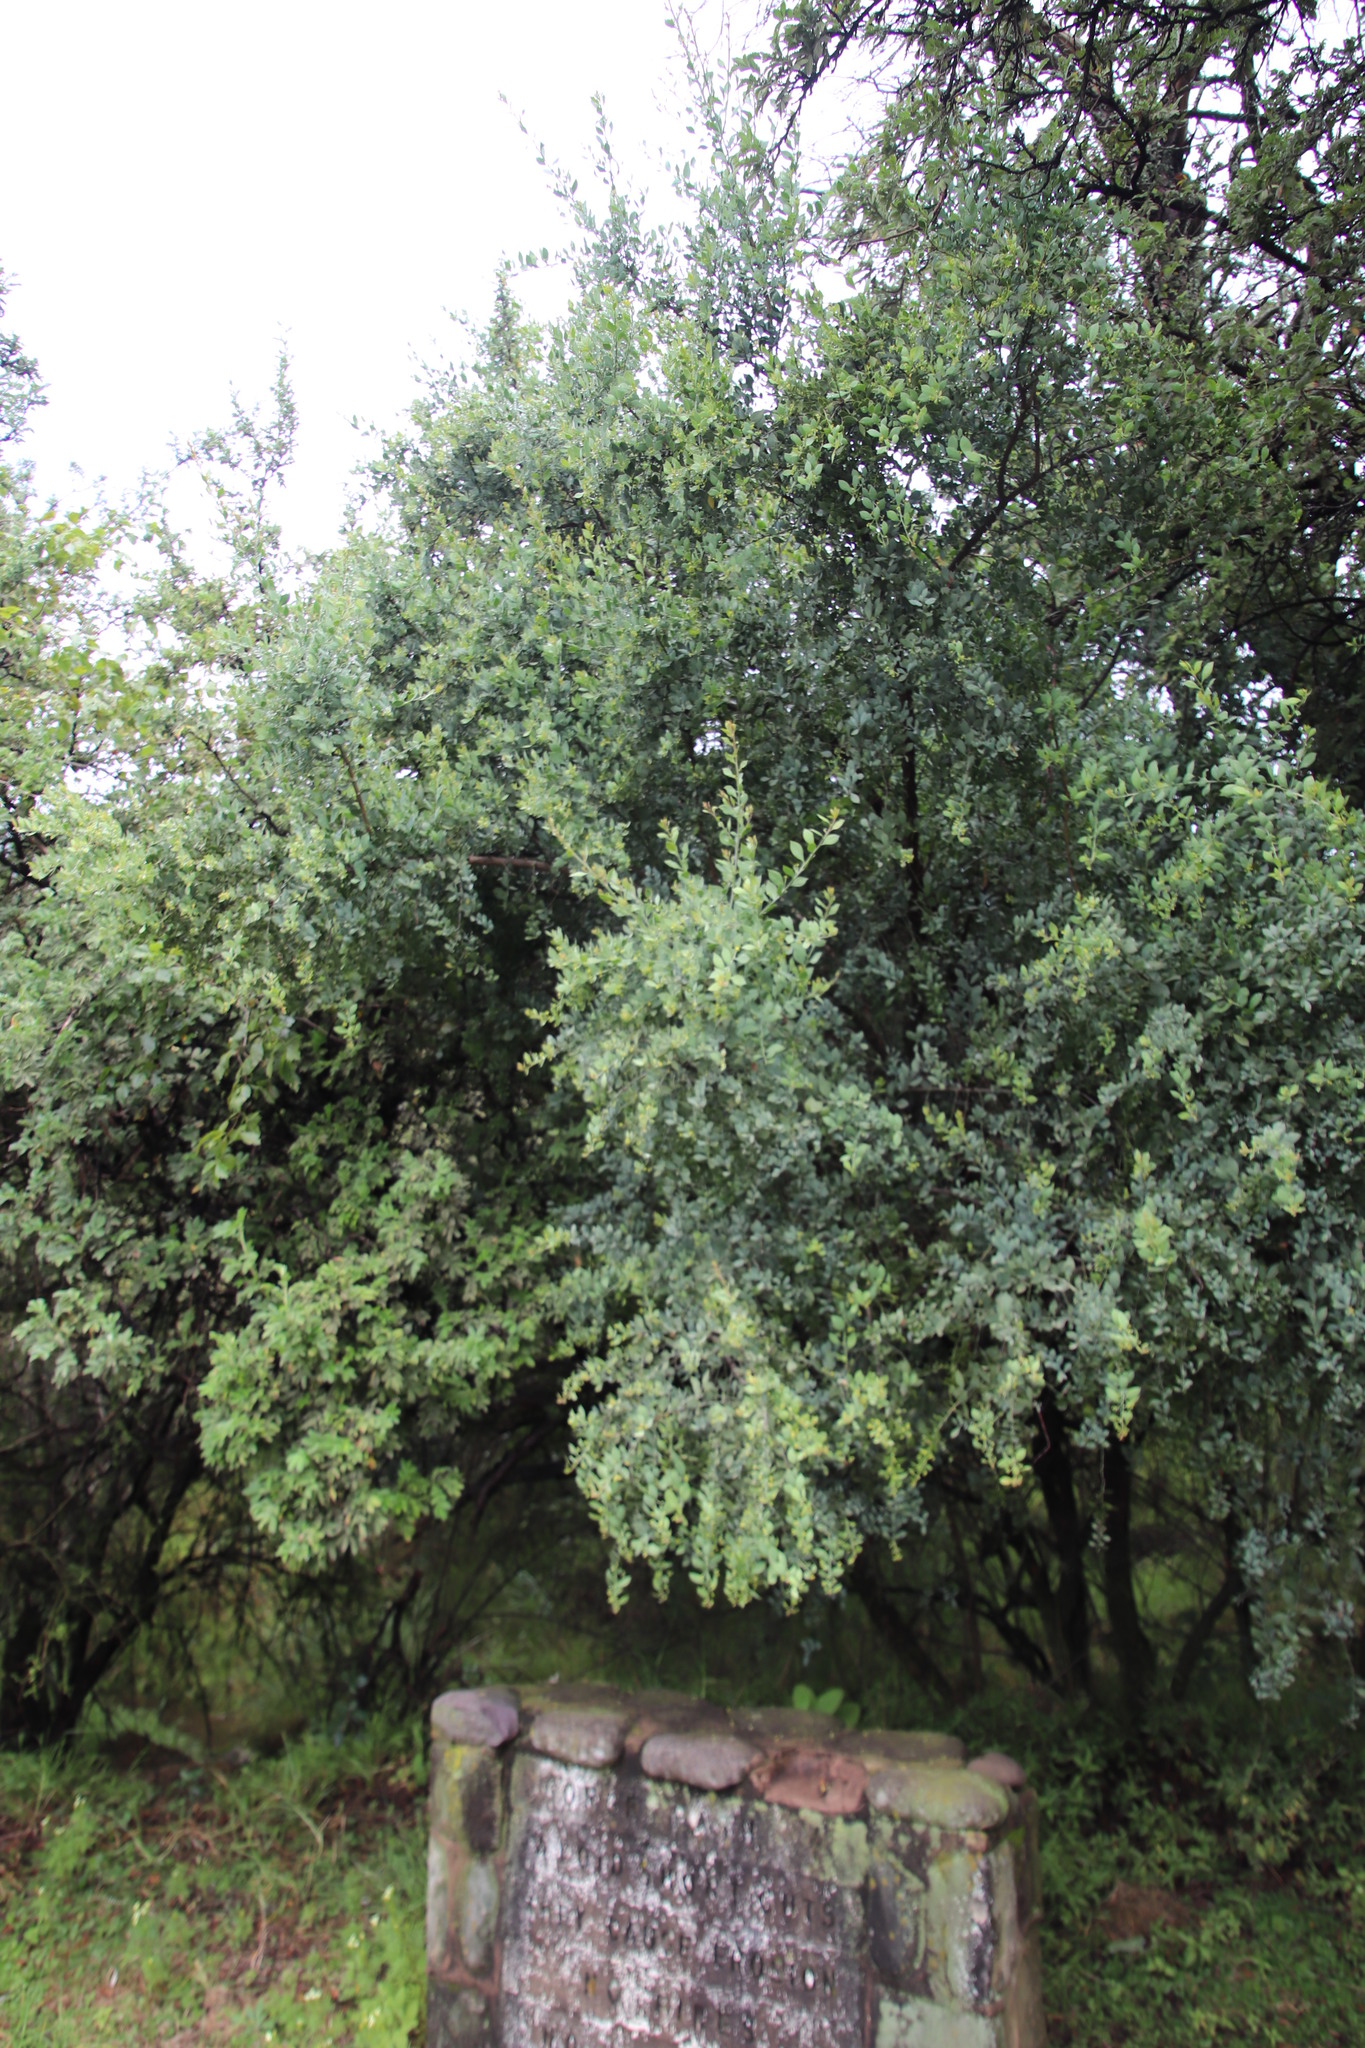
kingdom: Plantae
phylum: Tracheophyta
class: Magnoliopsida
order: Santalales
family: Santalaceae
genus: Osyris
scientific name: Osyris lanceolata
